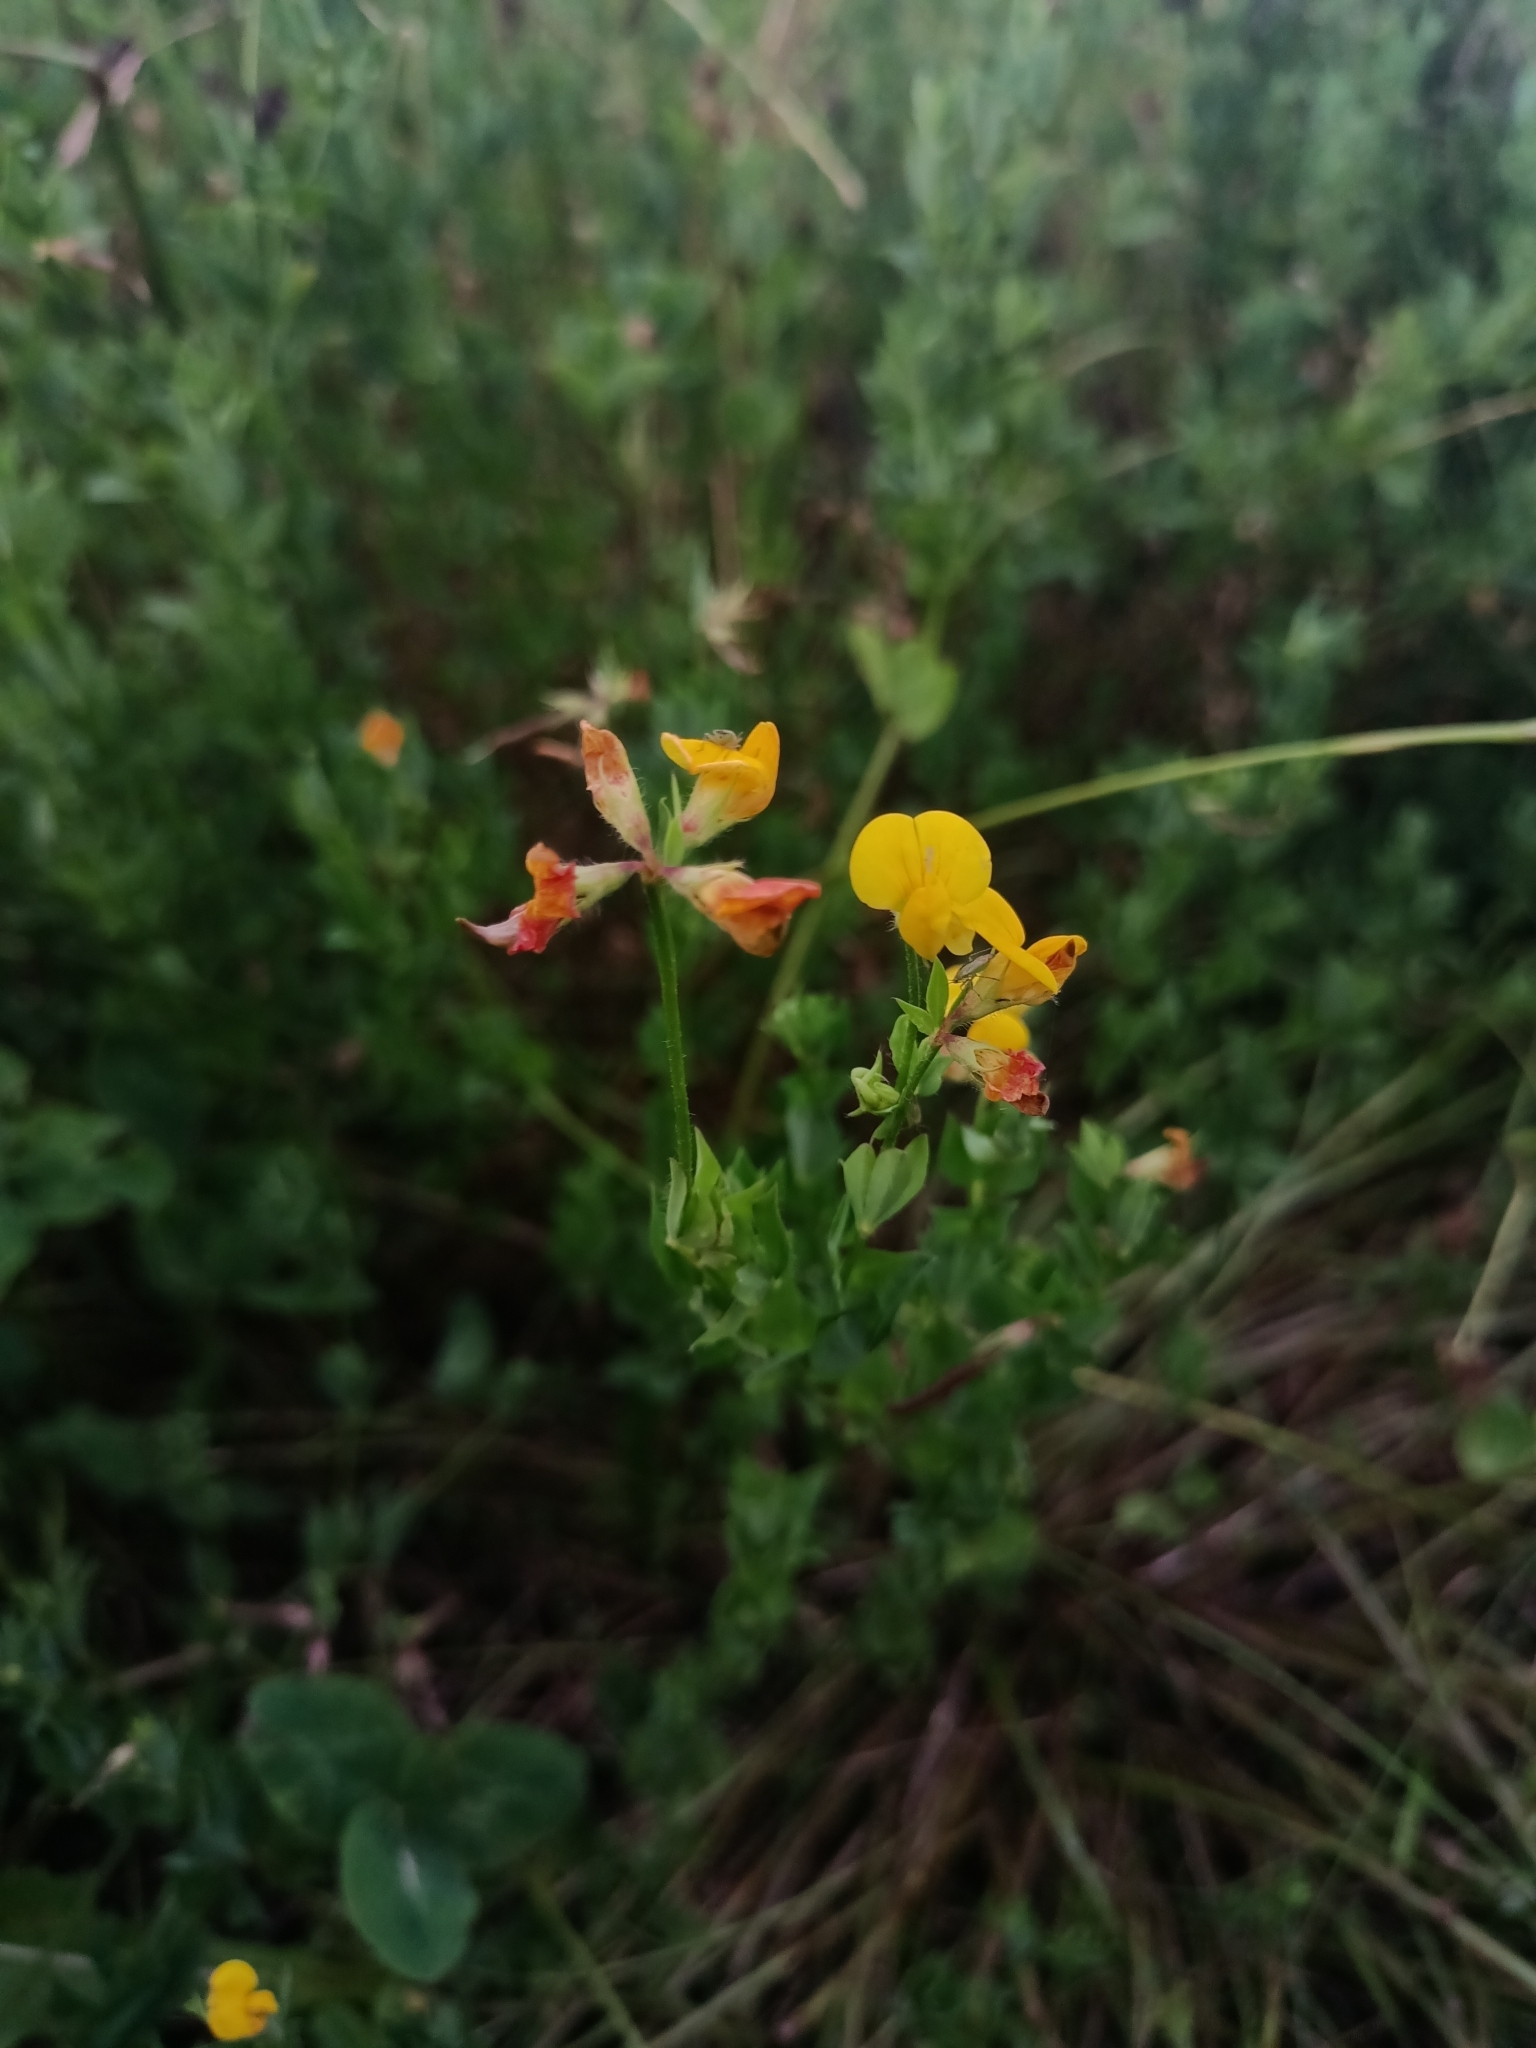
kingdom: Plantae
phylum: Tracheophyta
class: Magnoliopsida
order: Fabales
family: Fabaceae
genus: Lotus
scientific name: Lotus corniculatus
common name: Common bird's-foot-trefoil
